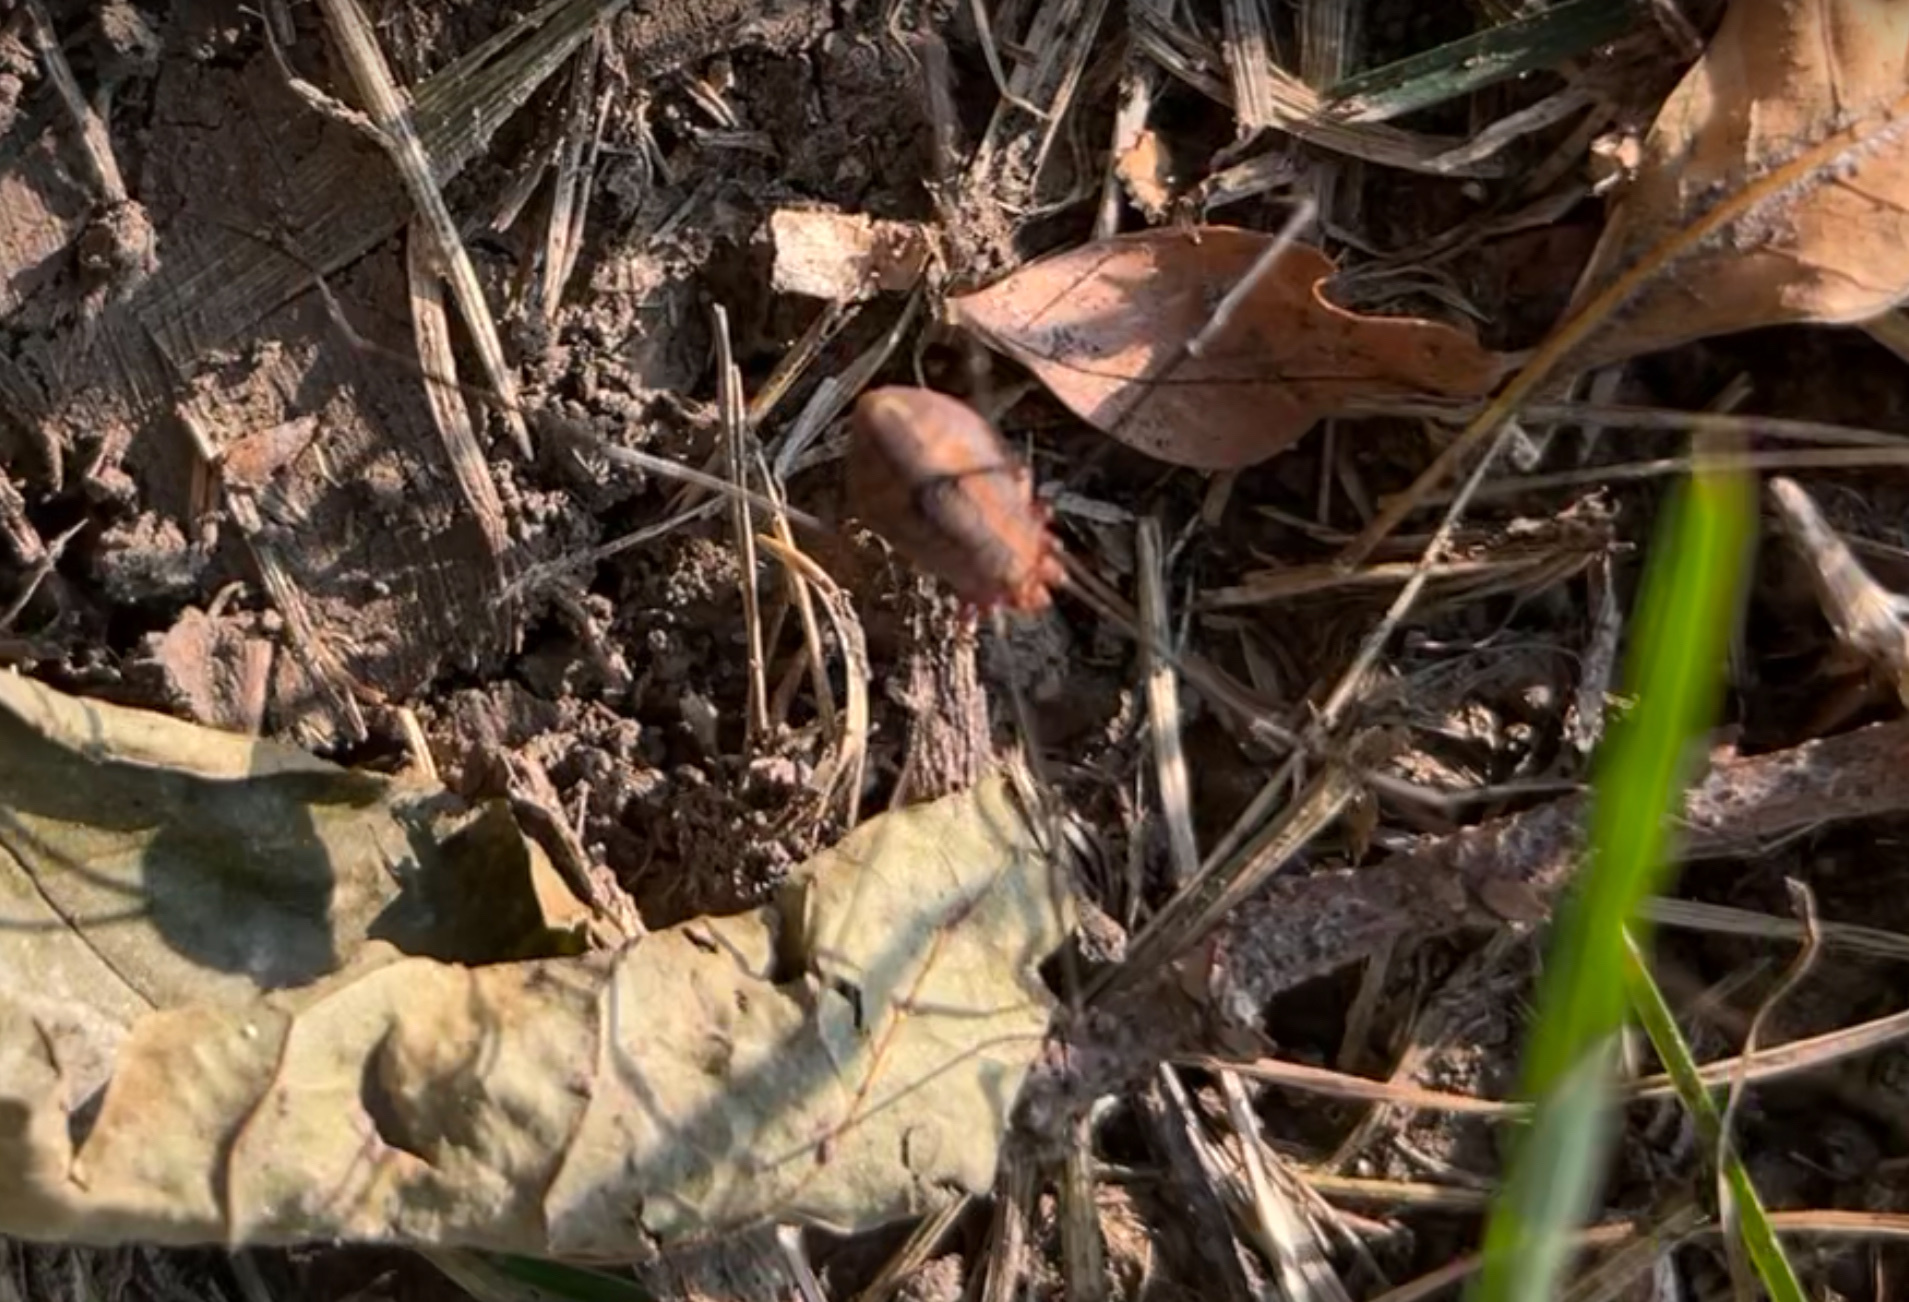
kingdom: Animalia
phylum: Arthropoda
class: Arachnida
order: Opiliones
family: Sclerosomatidae
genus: Leiobunum
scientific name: Leiobunum vittatum
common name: Eastern harvestman
